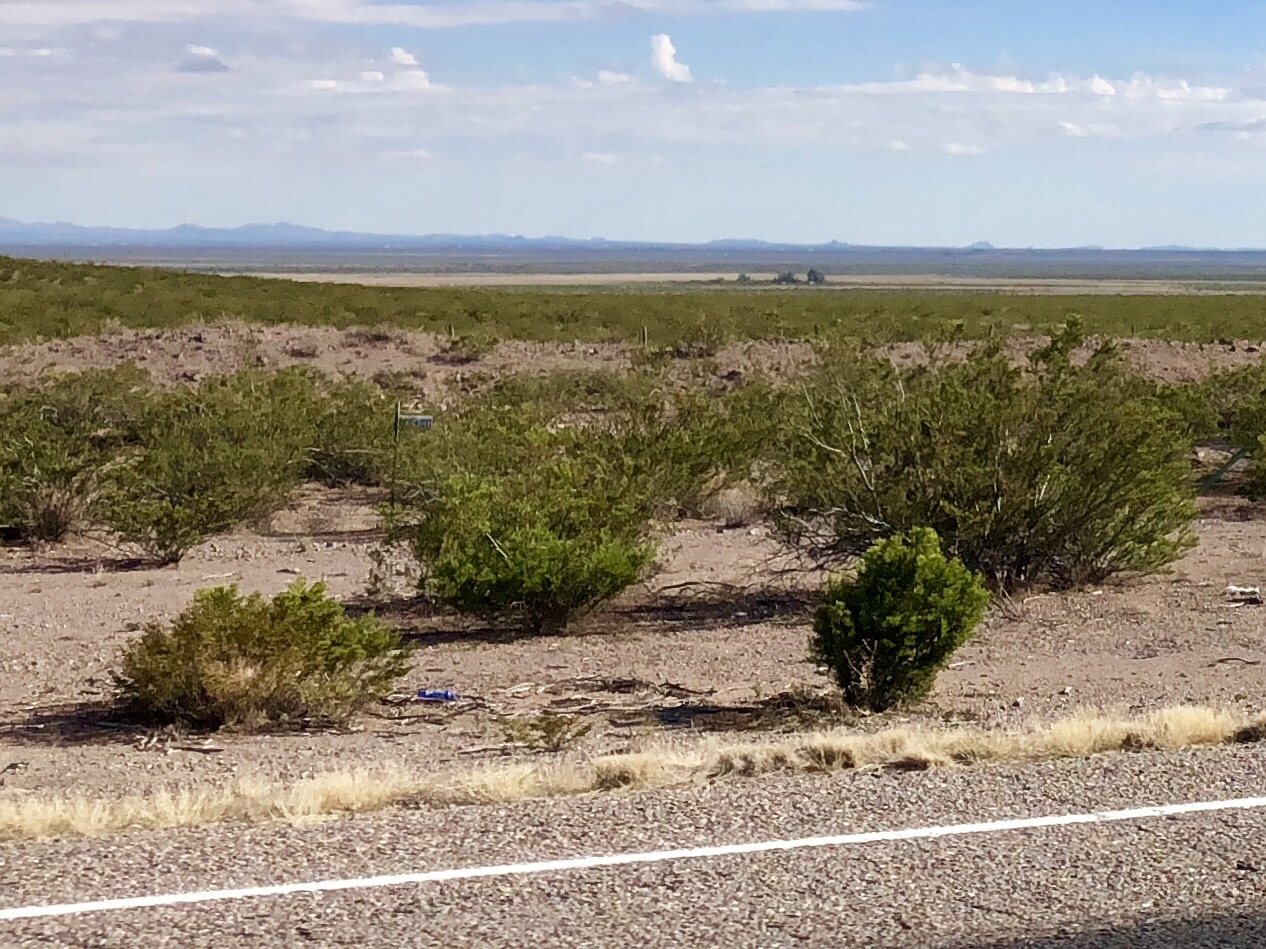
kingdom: Plantae
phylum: Tracheophyta
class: Magnoliopsida
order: Zygophyllales
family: Zygophyllaceae
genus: Larrea
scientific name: Larrea tridentata
